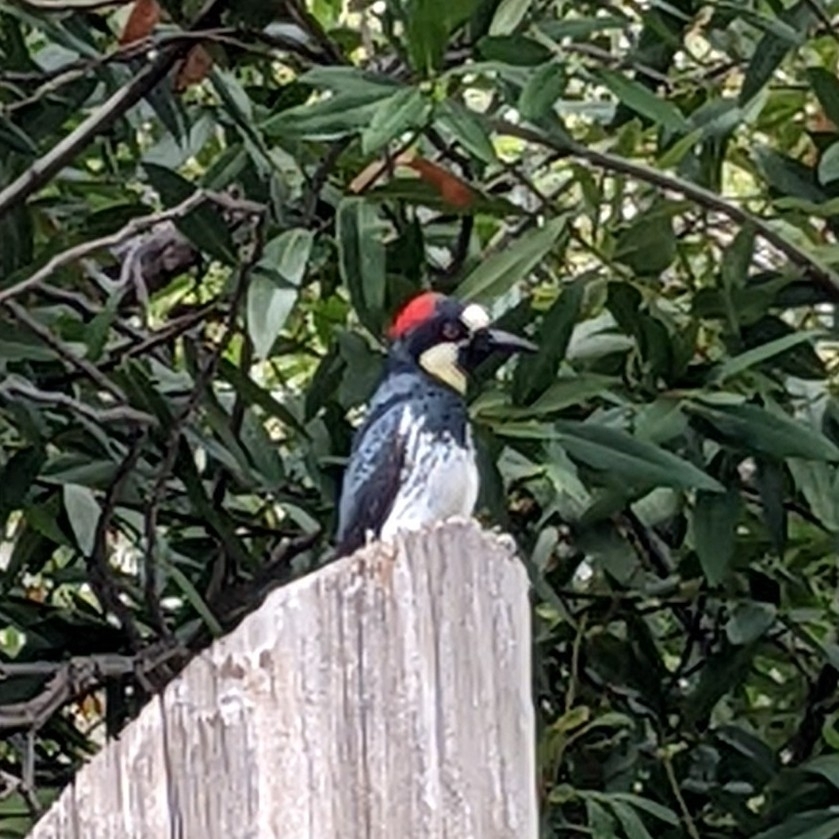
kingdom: Animalia
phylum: Chordata
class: Aves
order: Piciformes
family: Picidae
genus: Melanerpes
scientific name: Melanerpes formicivorus
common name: Acorn woodpecker
